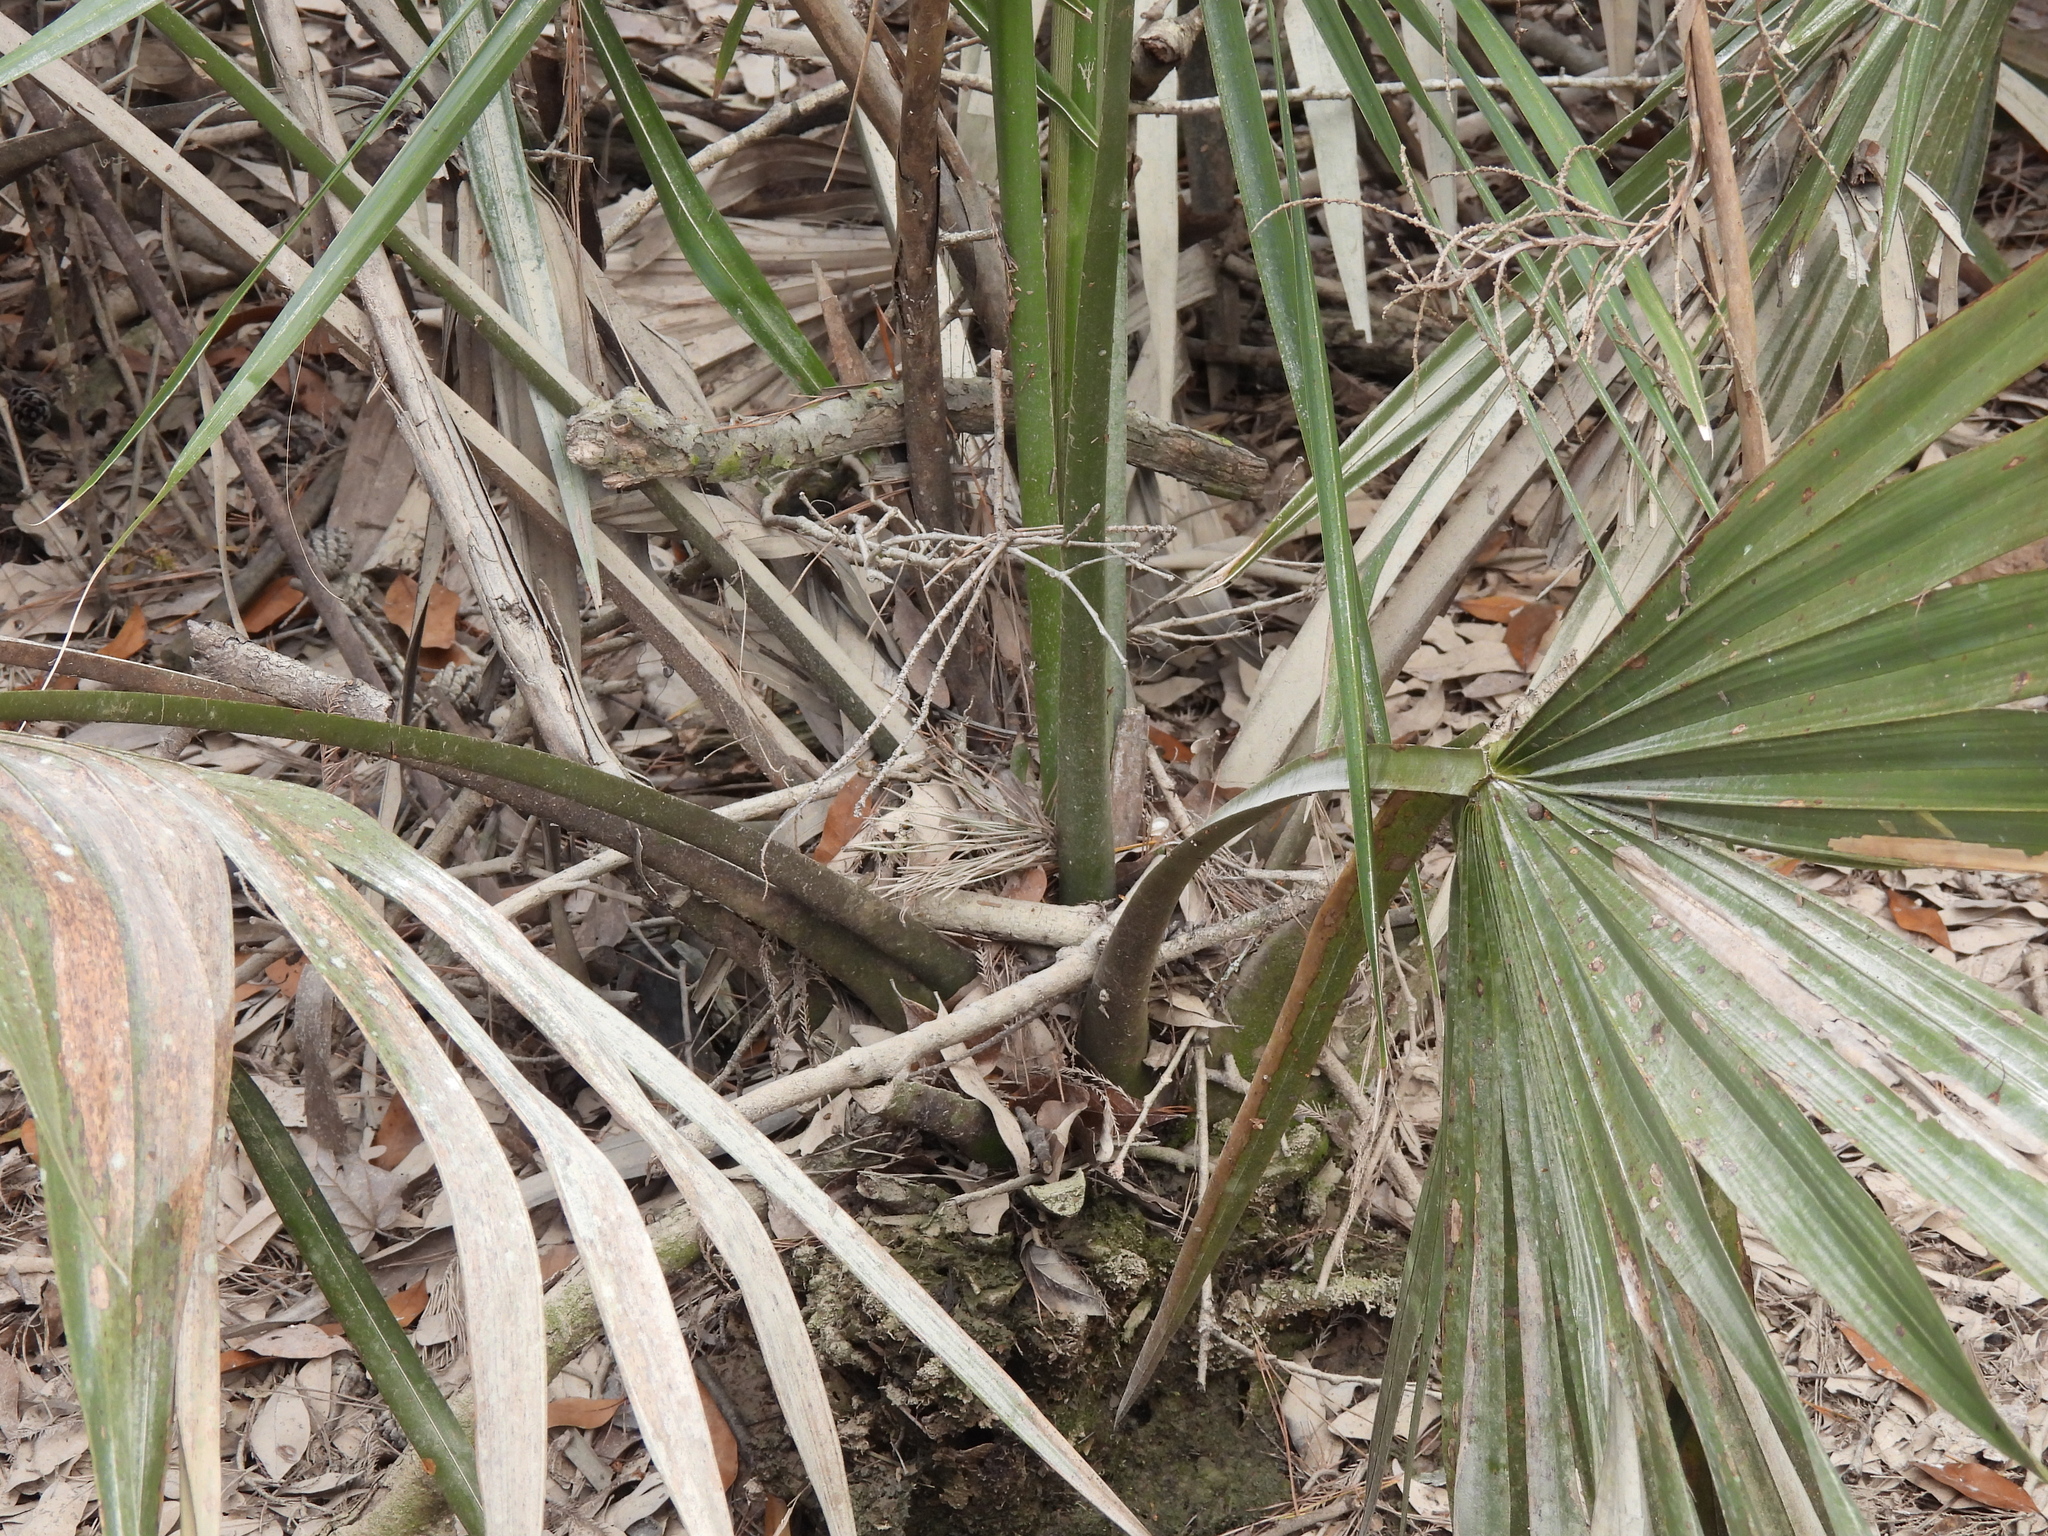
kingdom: Plantae
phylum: Tracheophyta
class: Liliopsida
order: Arecales
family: Arecaceae
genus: Sabal
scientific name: Sabal minor
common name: Dwarf palmetto
